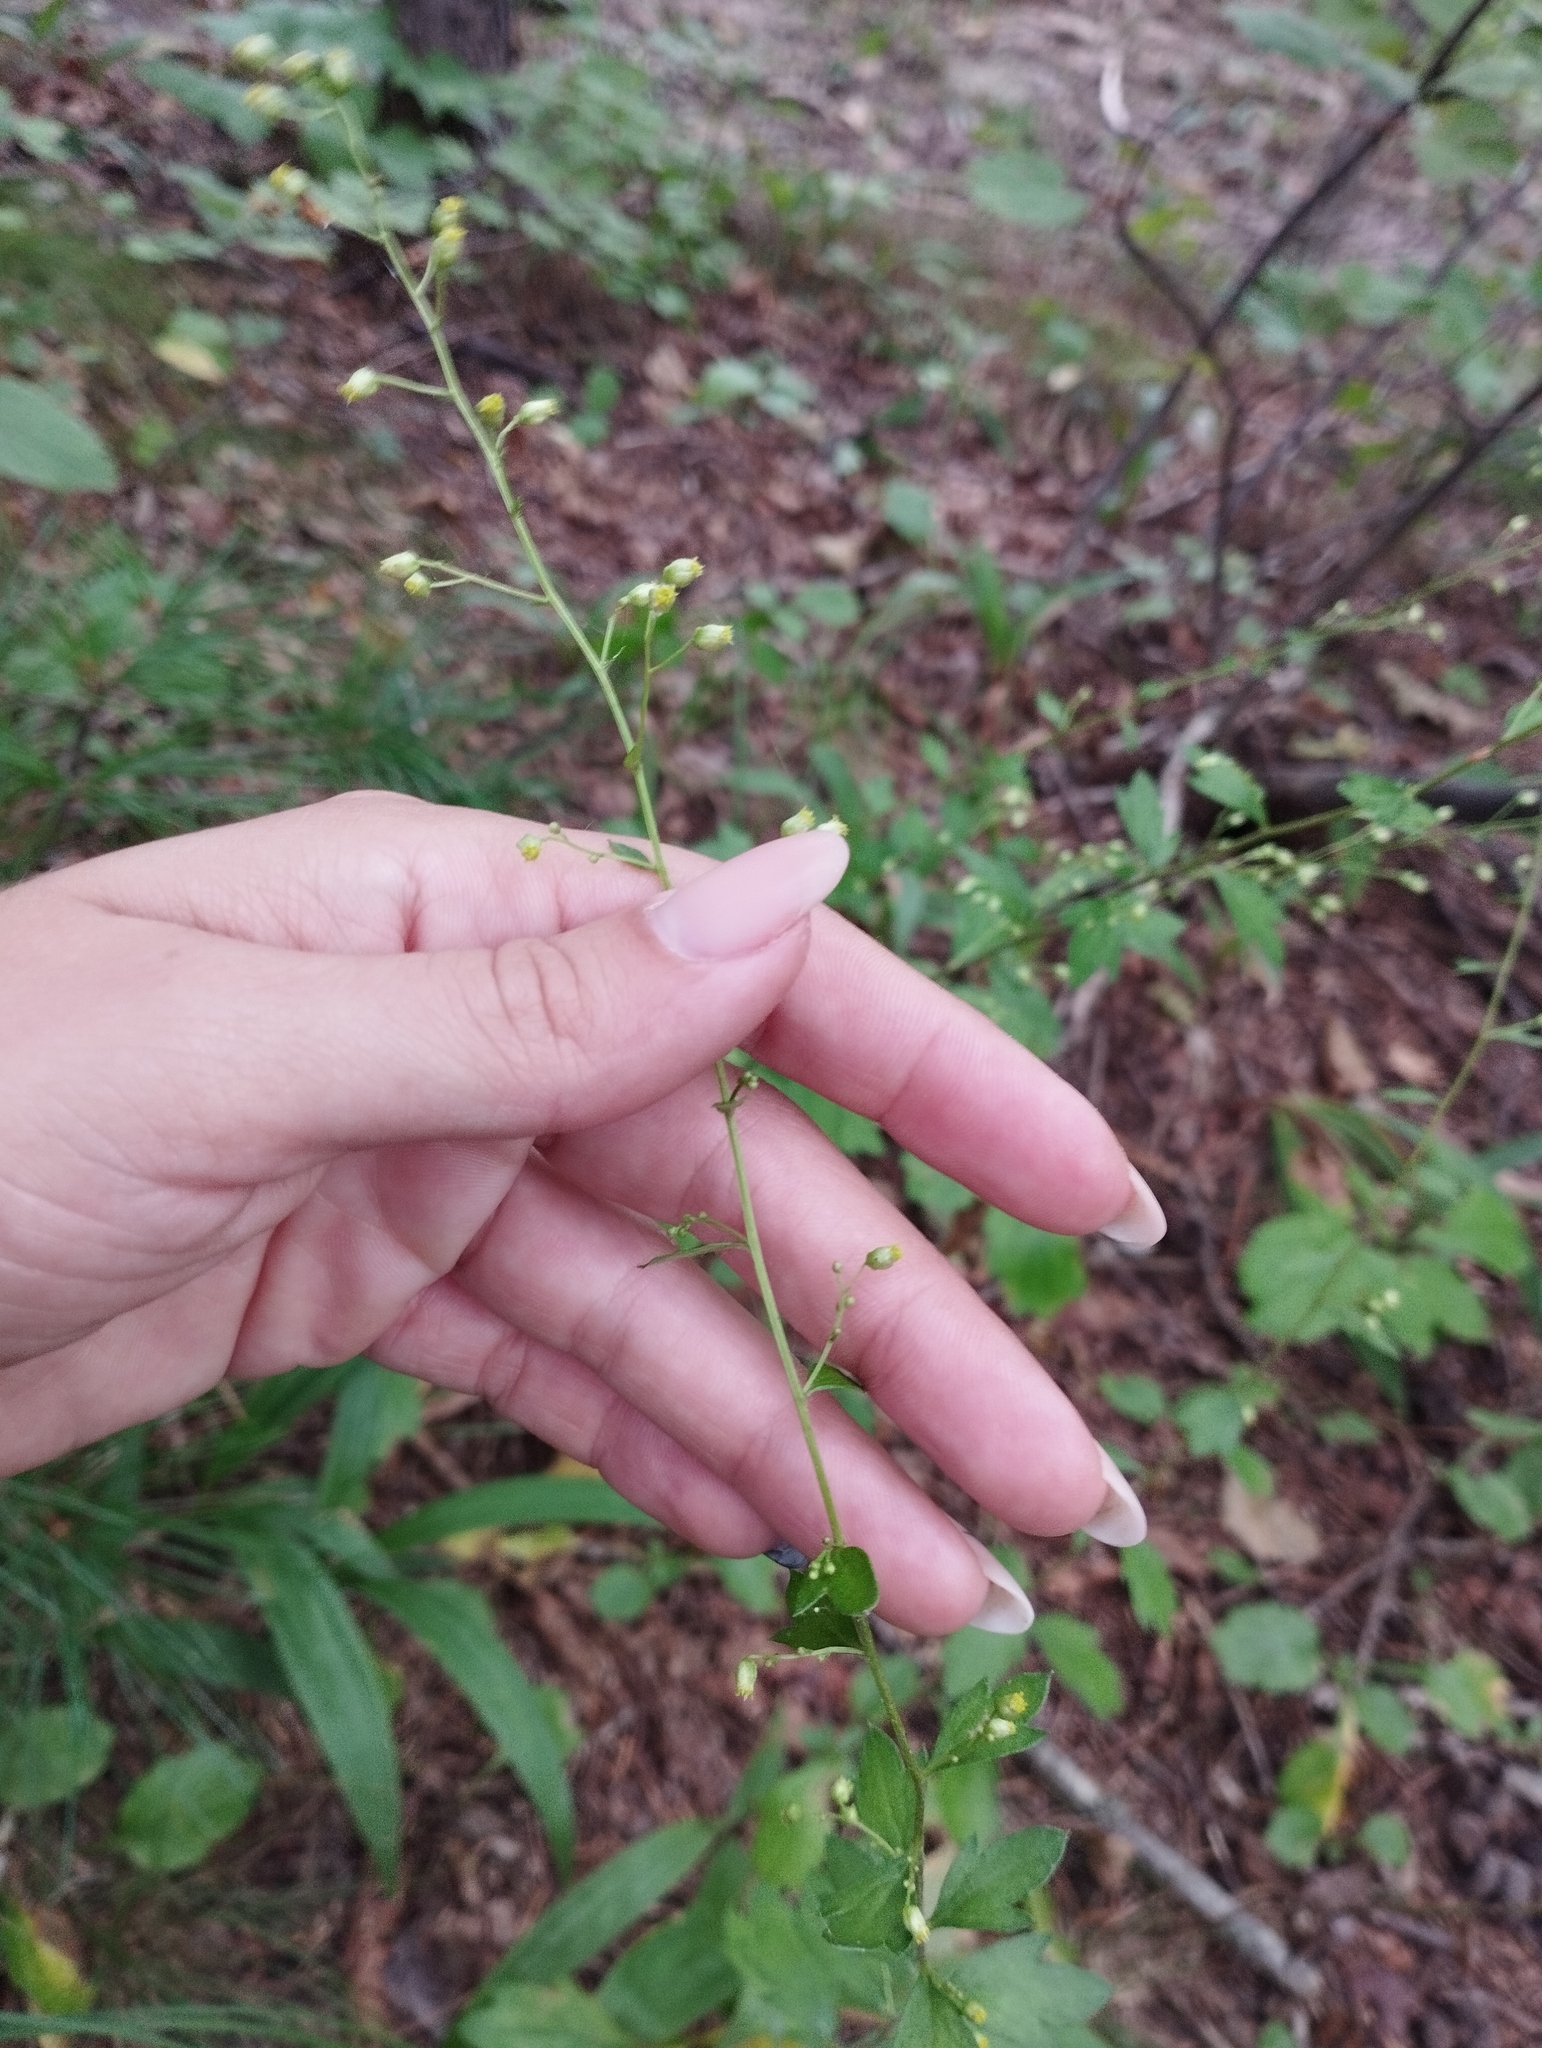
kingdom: Plantae
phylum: Tracheophyta
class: Magnoliopsida
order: Asterales
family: Asteraceae
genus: Artemisia
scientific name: Artemisia keiskeana
